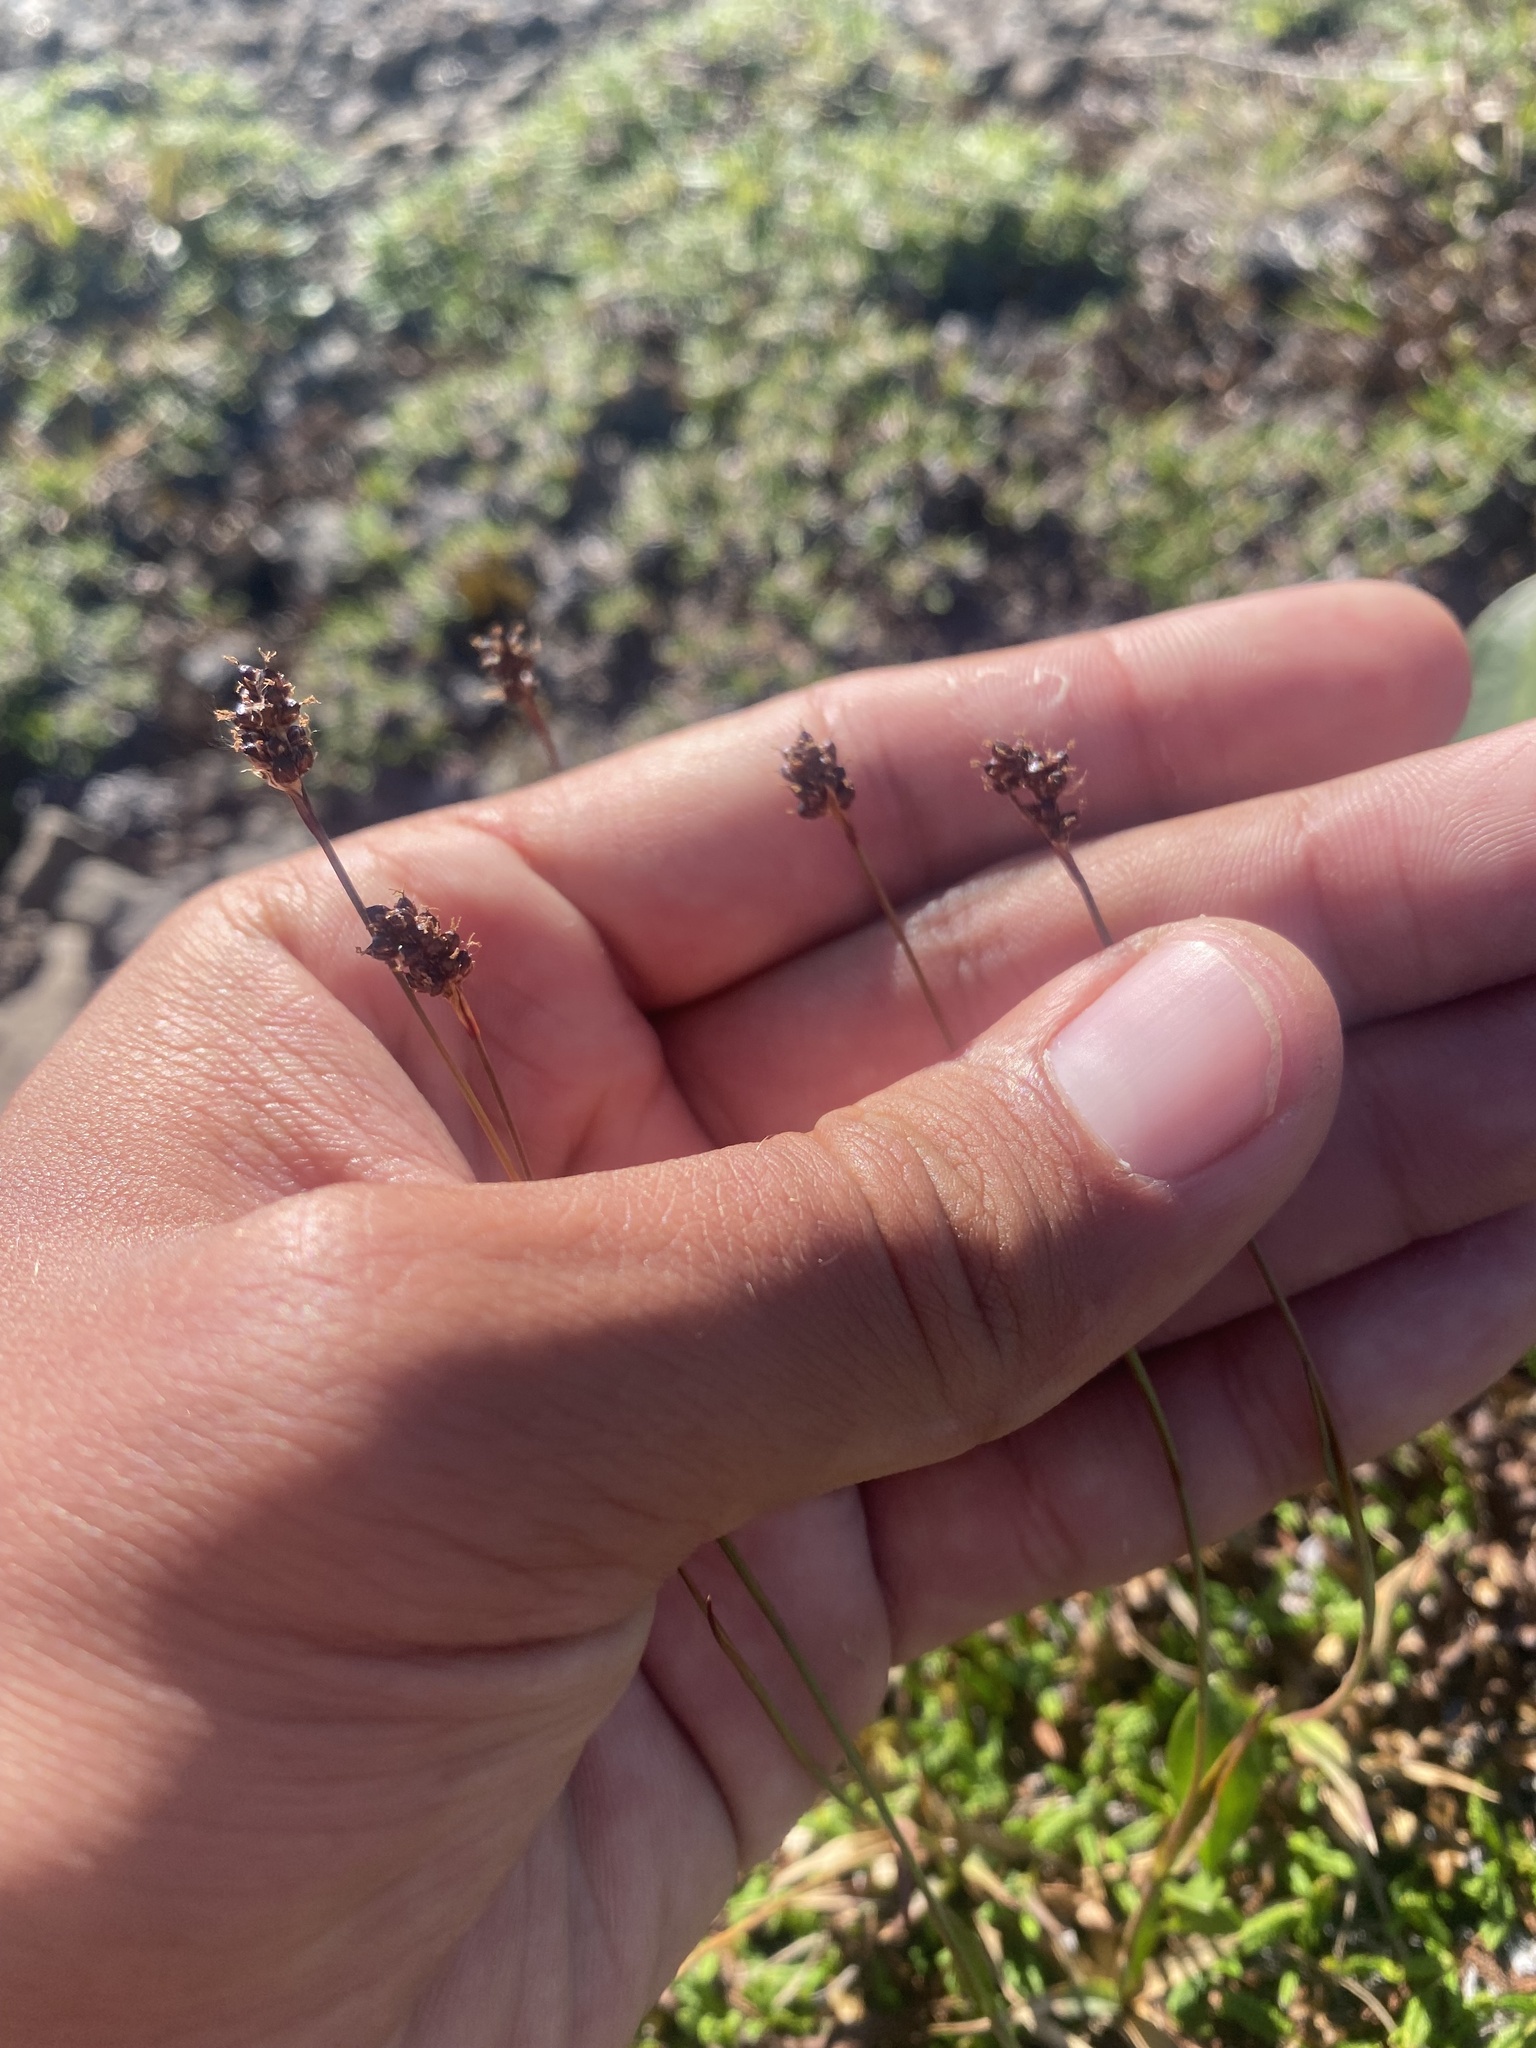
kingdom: Plantae
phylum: Tracheophyta
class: Liliopsida
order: Poales
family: Juncaceae
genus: Luzula
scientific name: Luzula nivalis
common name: Arctic woodrush
